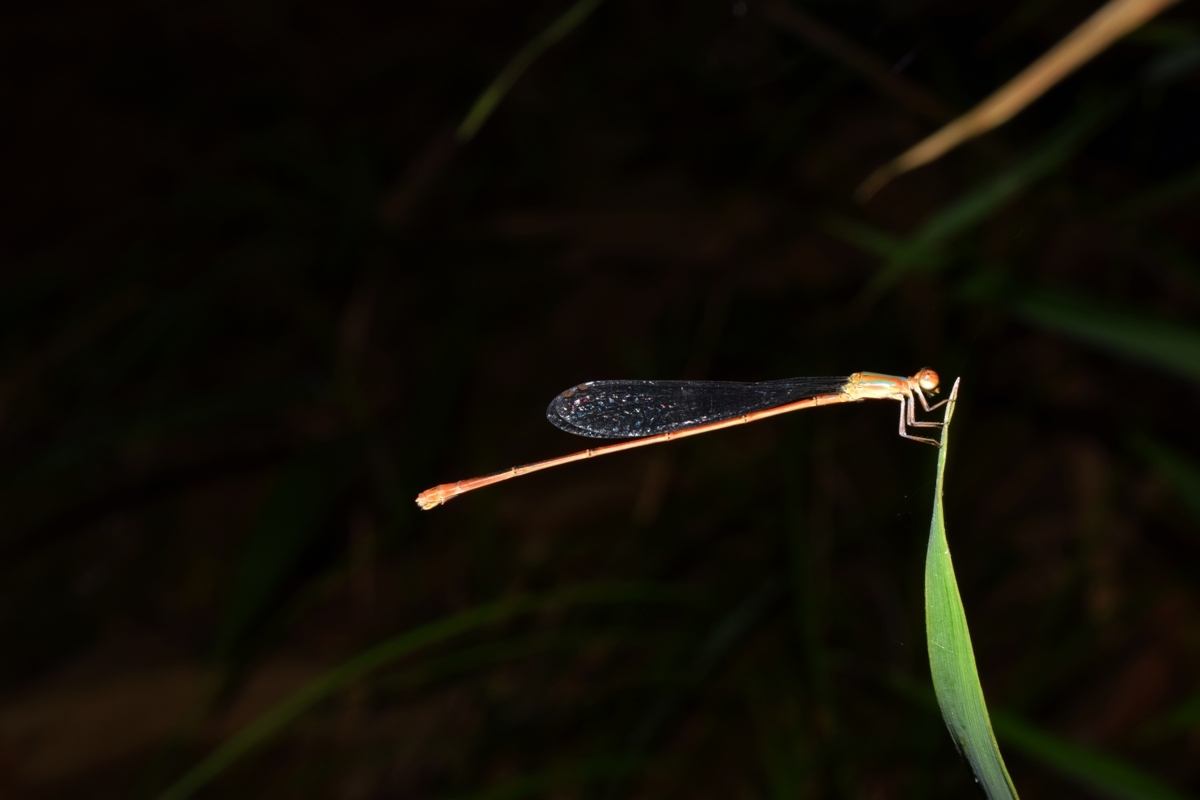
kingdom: Animalia
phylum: Arthropoda
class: Insecta
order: Odonata
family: Coenagrionidae
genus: Aciagrion
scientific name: Aciagrion pallidum
